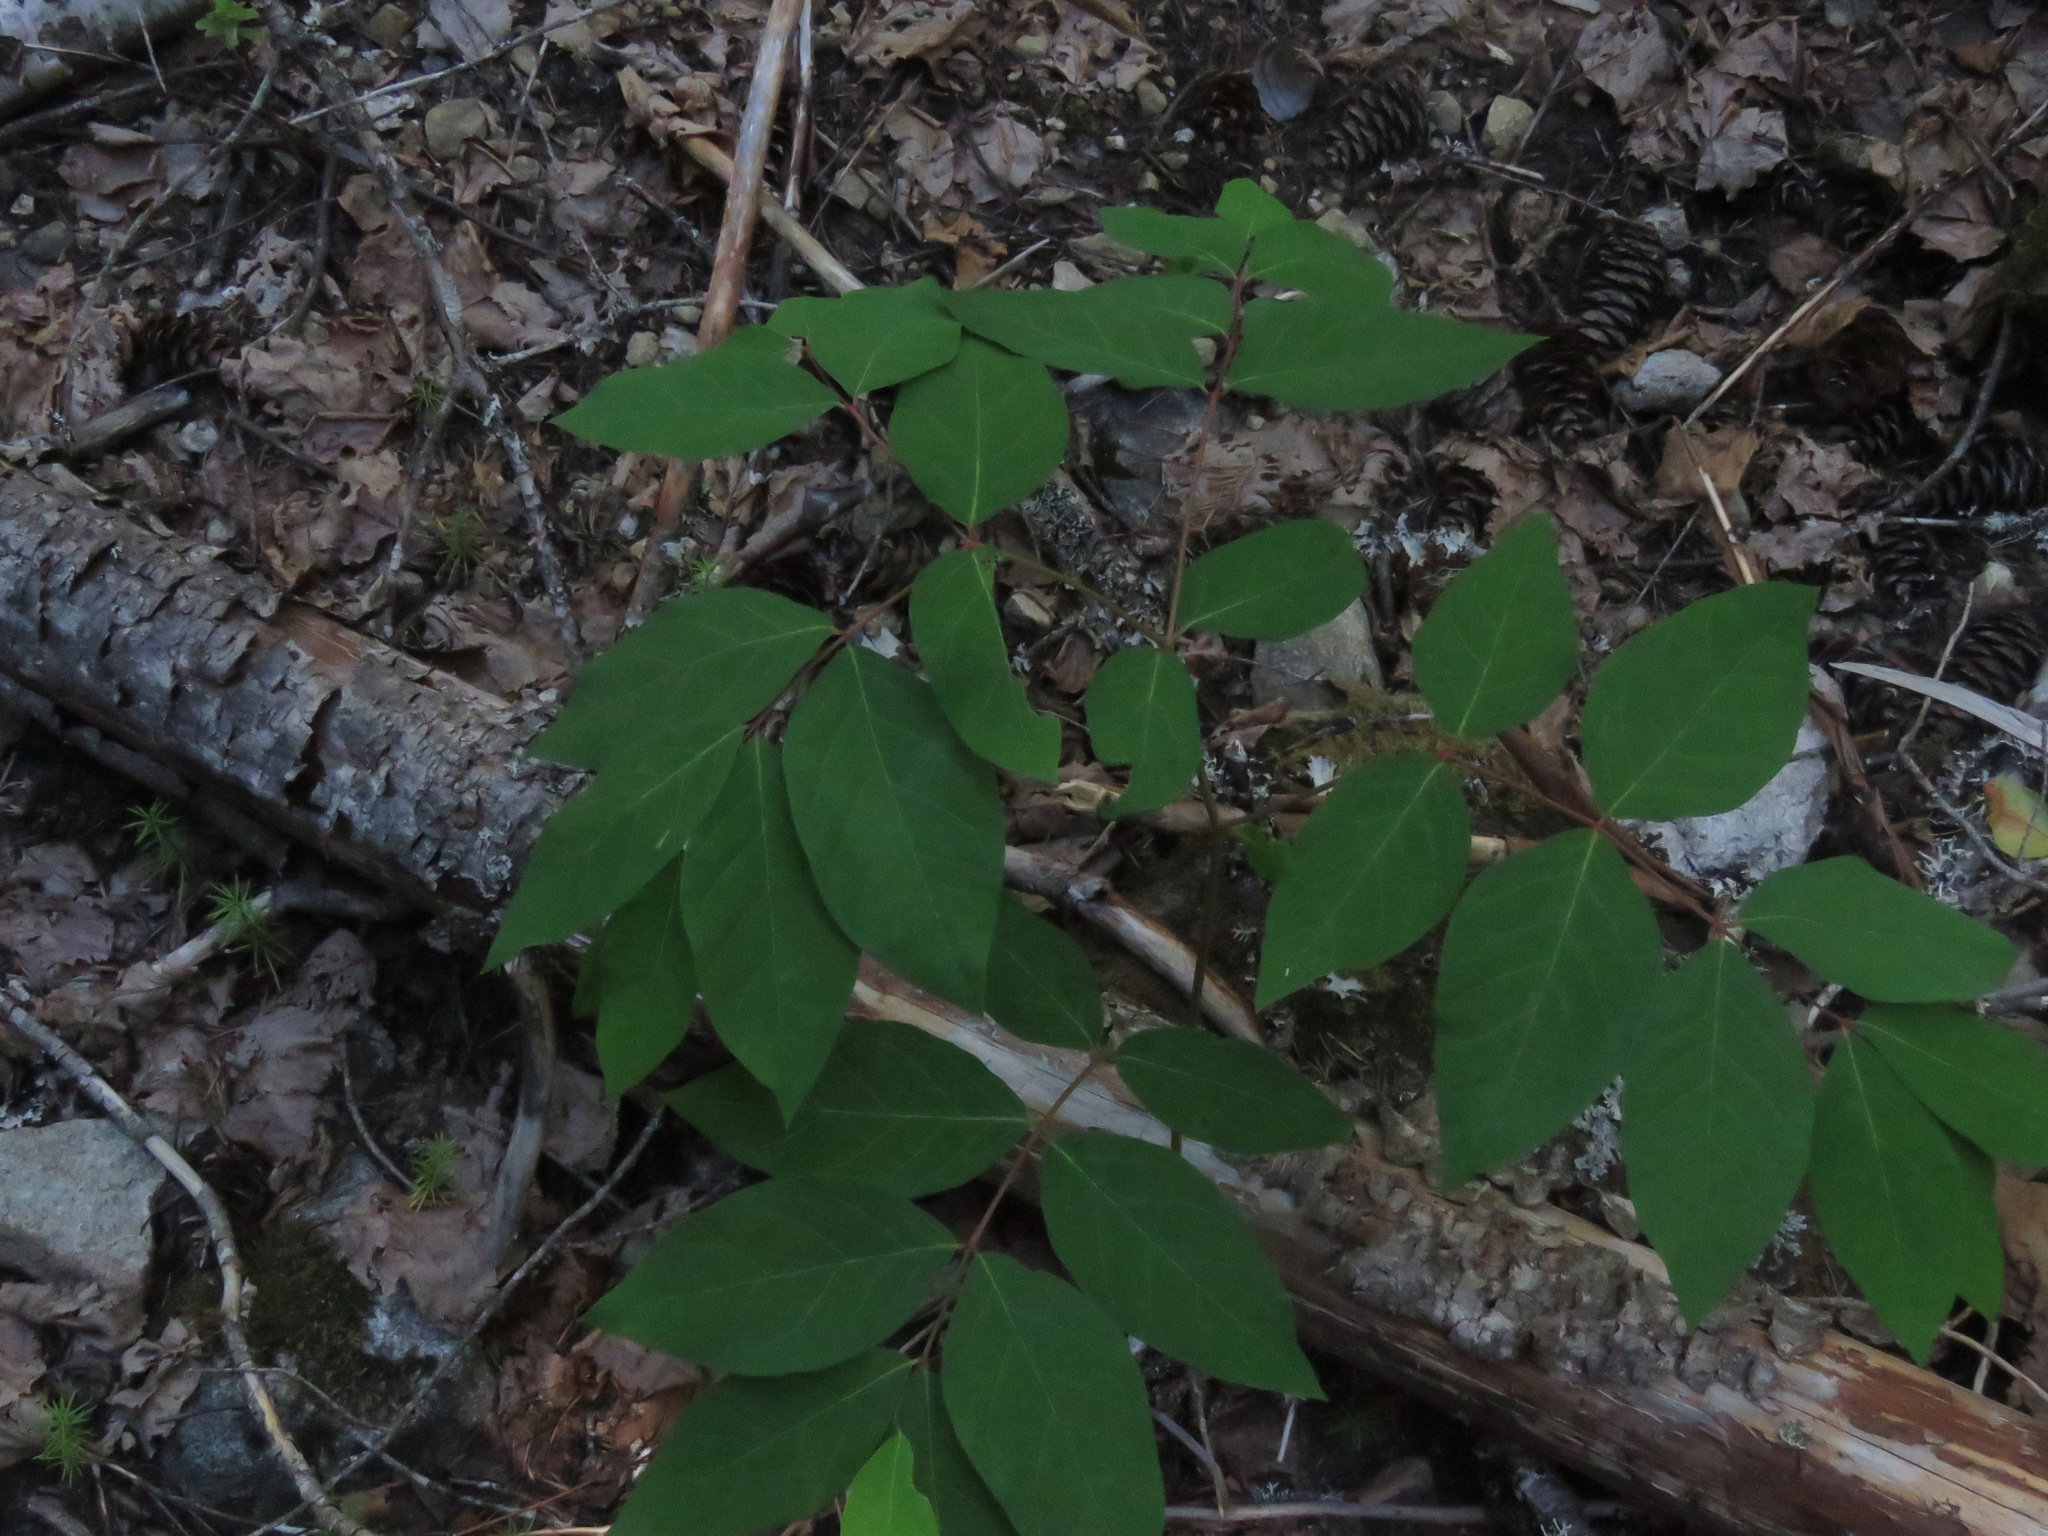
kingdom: Plantae
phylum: Tracheophyta
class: Magnoliopsida
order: Gentianales
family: Apocynaceae
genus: Apocynum
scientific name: Apocynum androsaemifolium
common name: Spreading dogbane
